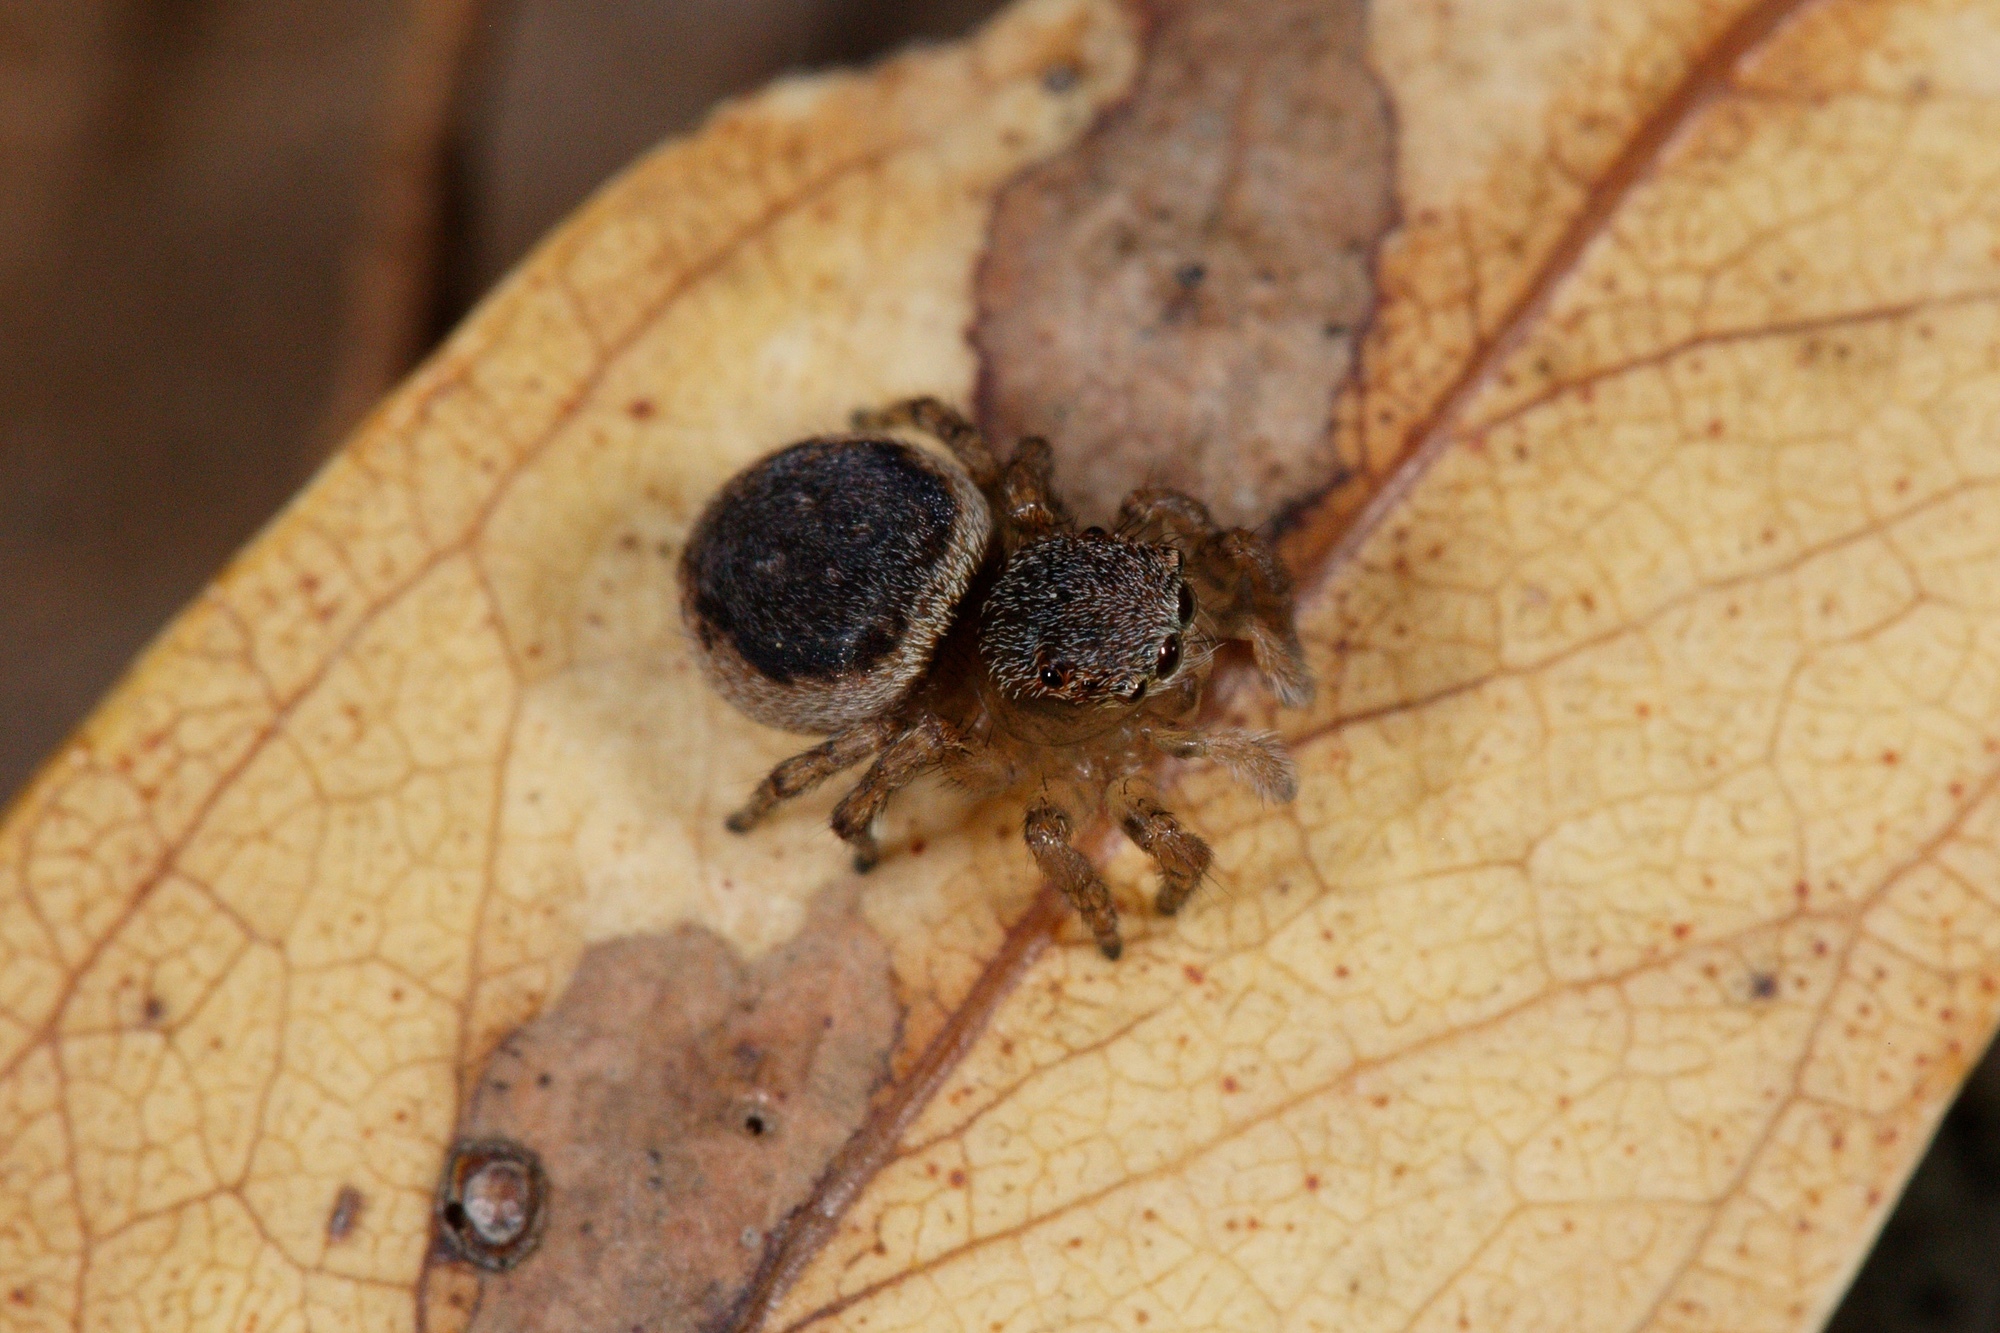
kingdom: Animalia
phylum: Arthropoda
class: Arachnida
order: Araneae
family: Salticidae
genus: Maratus
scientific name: Maratus volans
